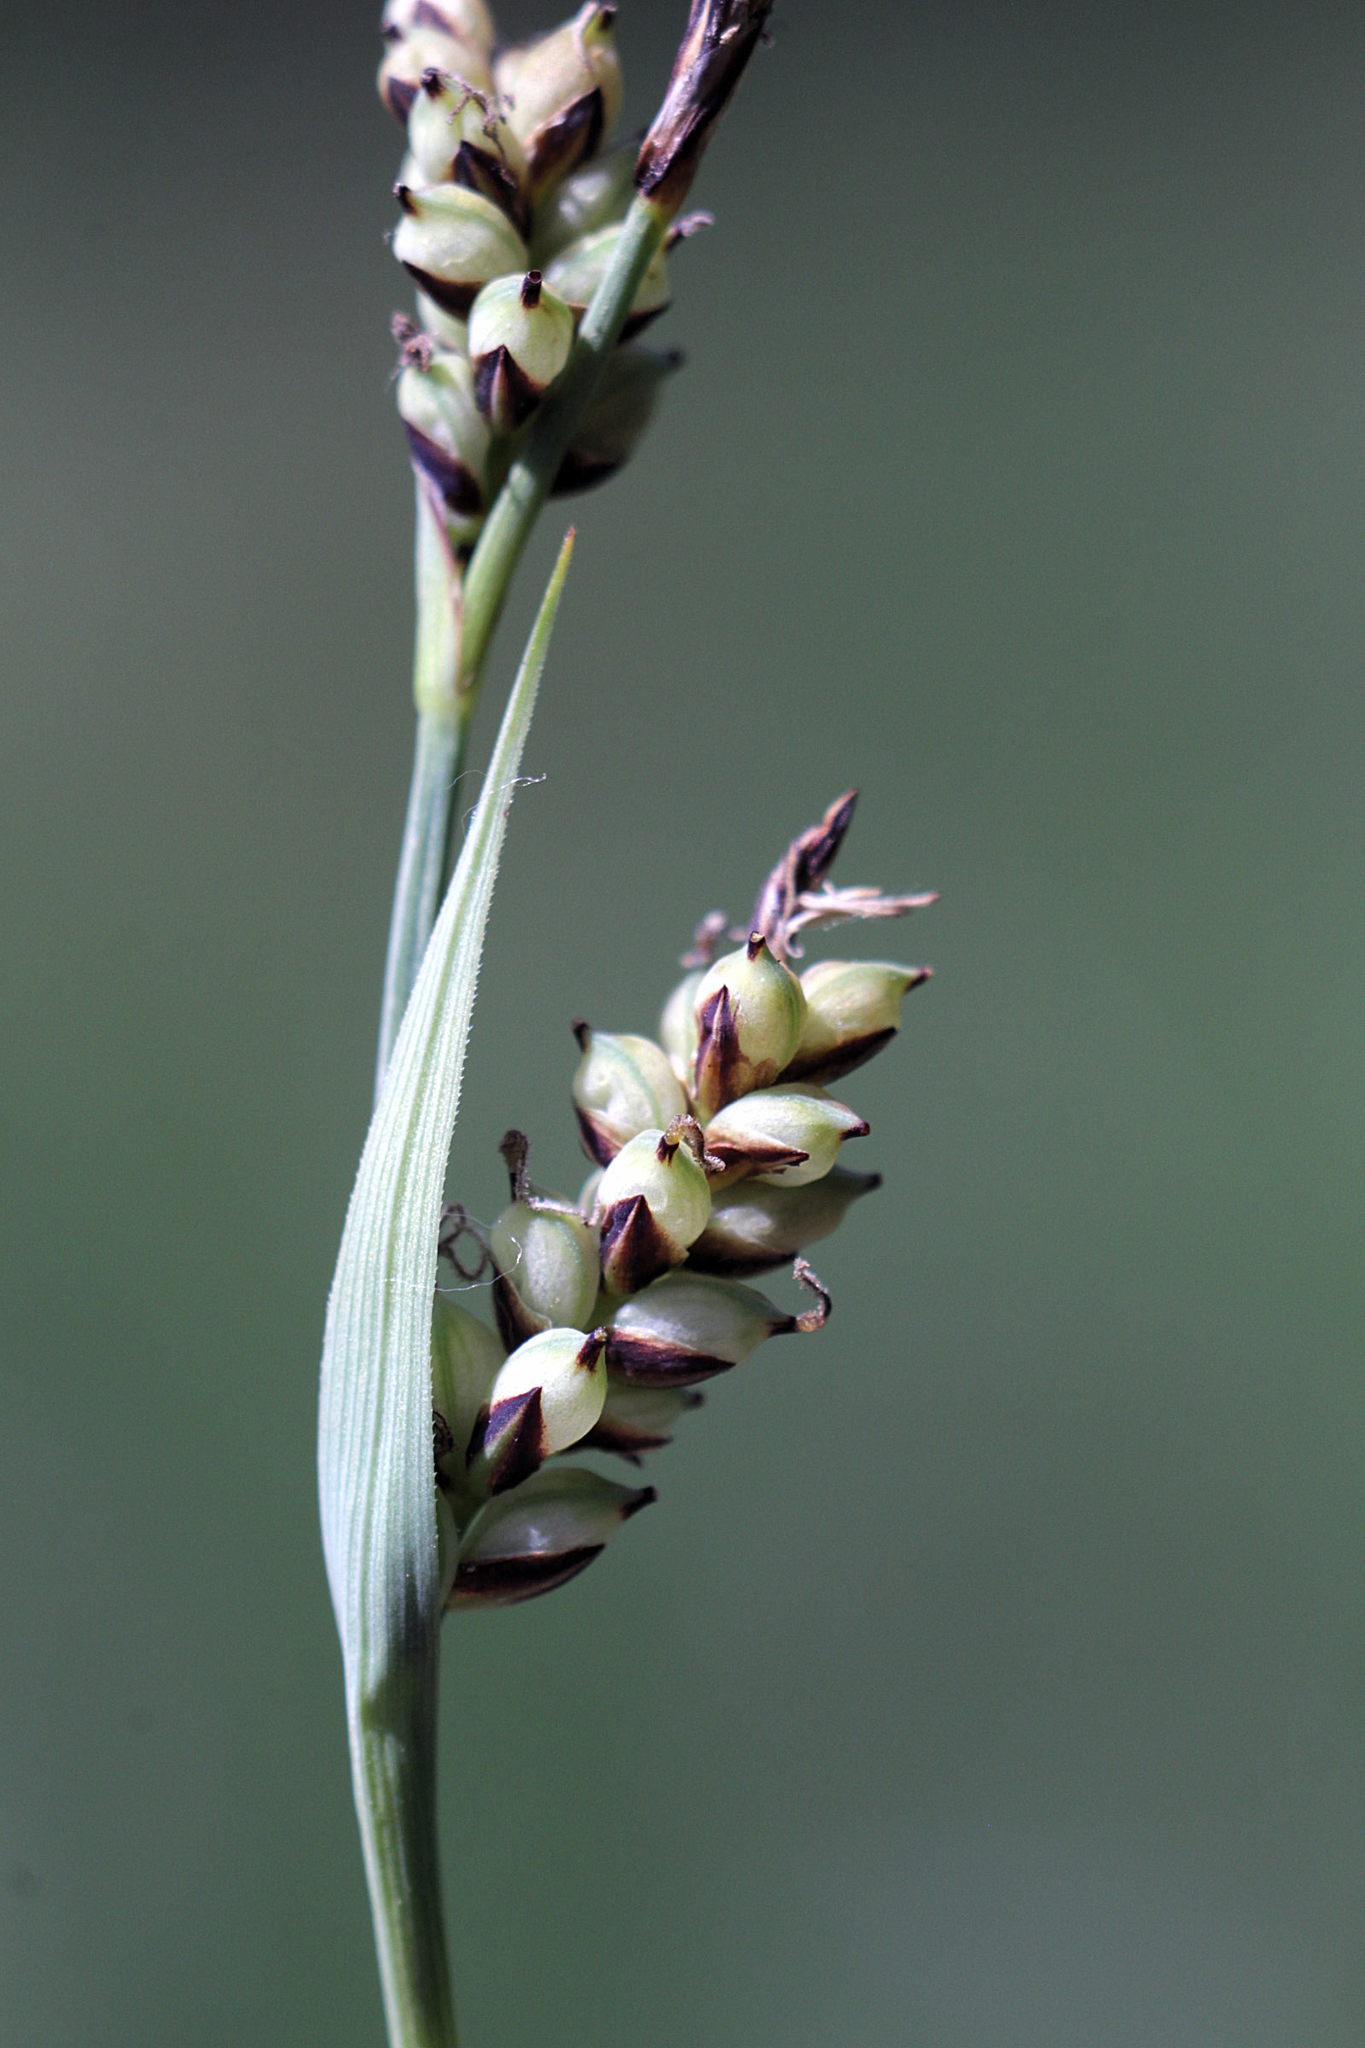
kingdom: Plantae
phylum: Tracheophyta
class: Liliopsida
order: Poales
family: Cyperaceae
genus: Carex
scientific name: Carex panicea
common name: Carnation sedge
